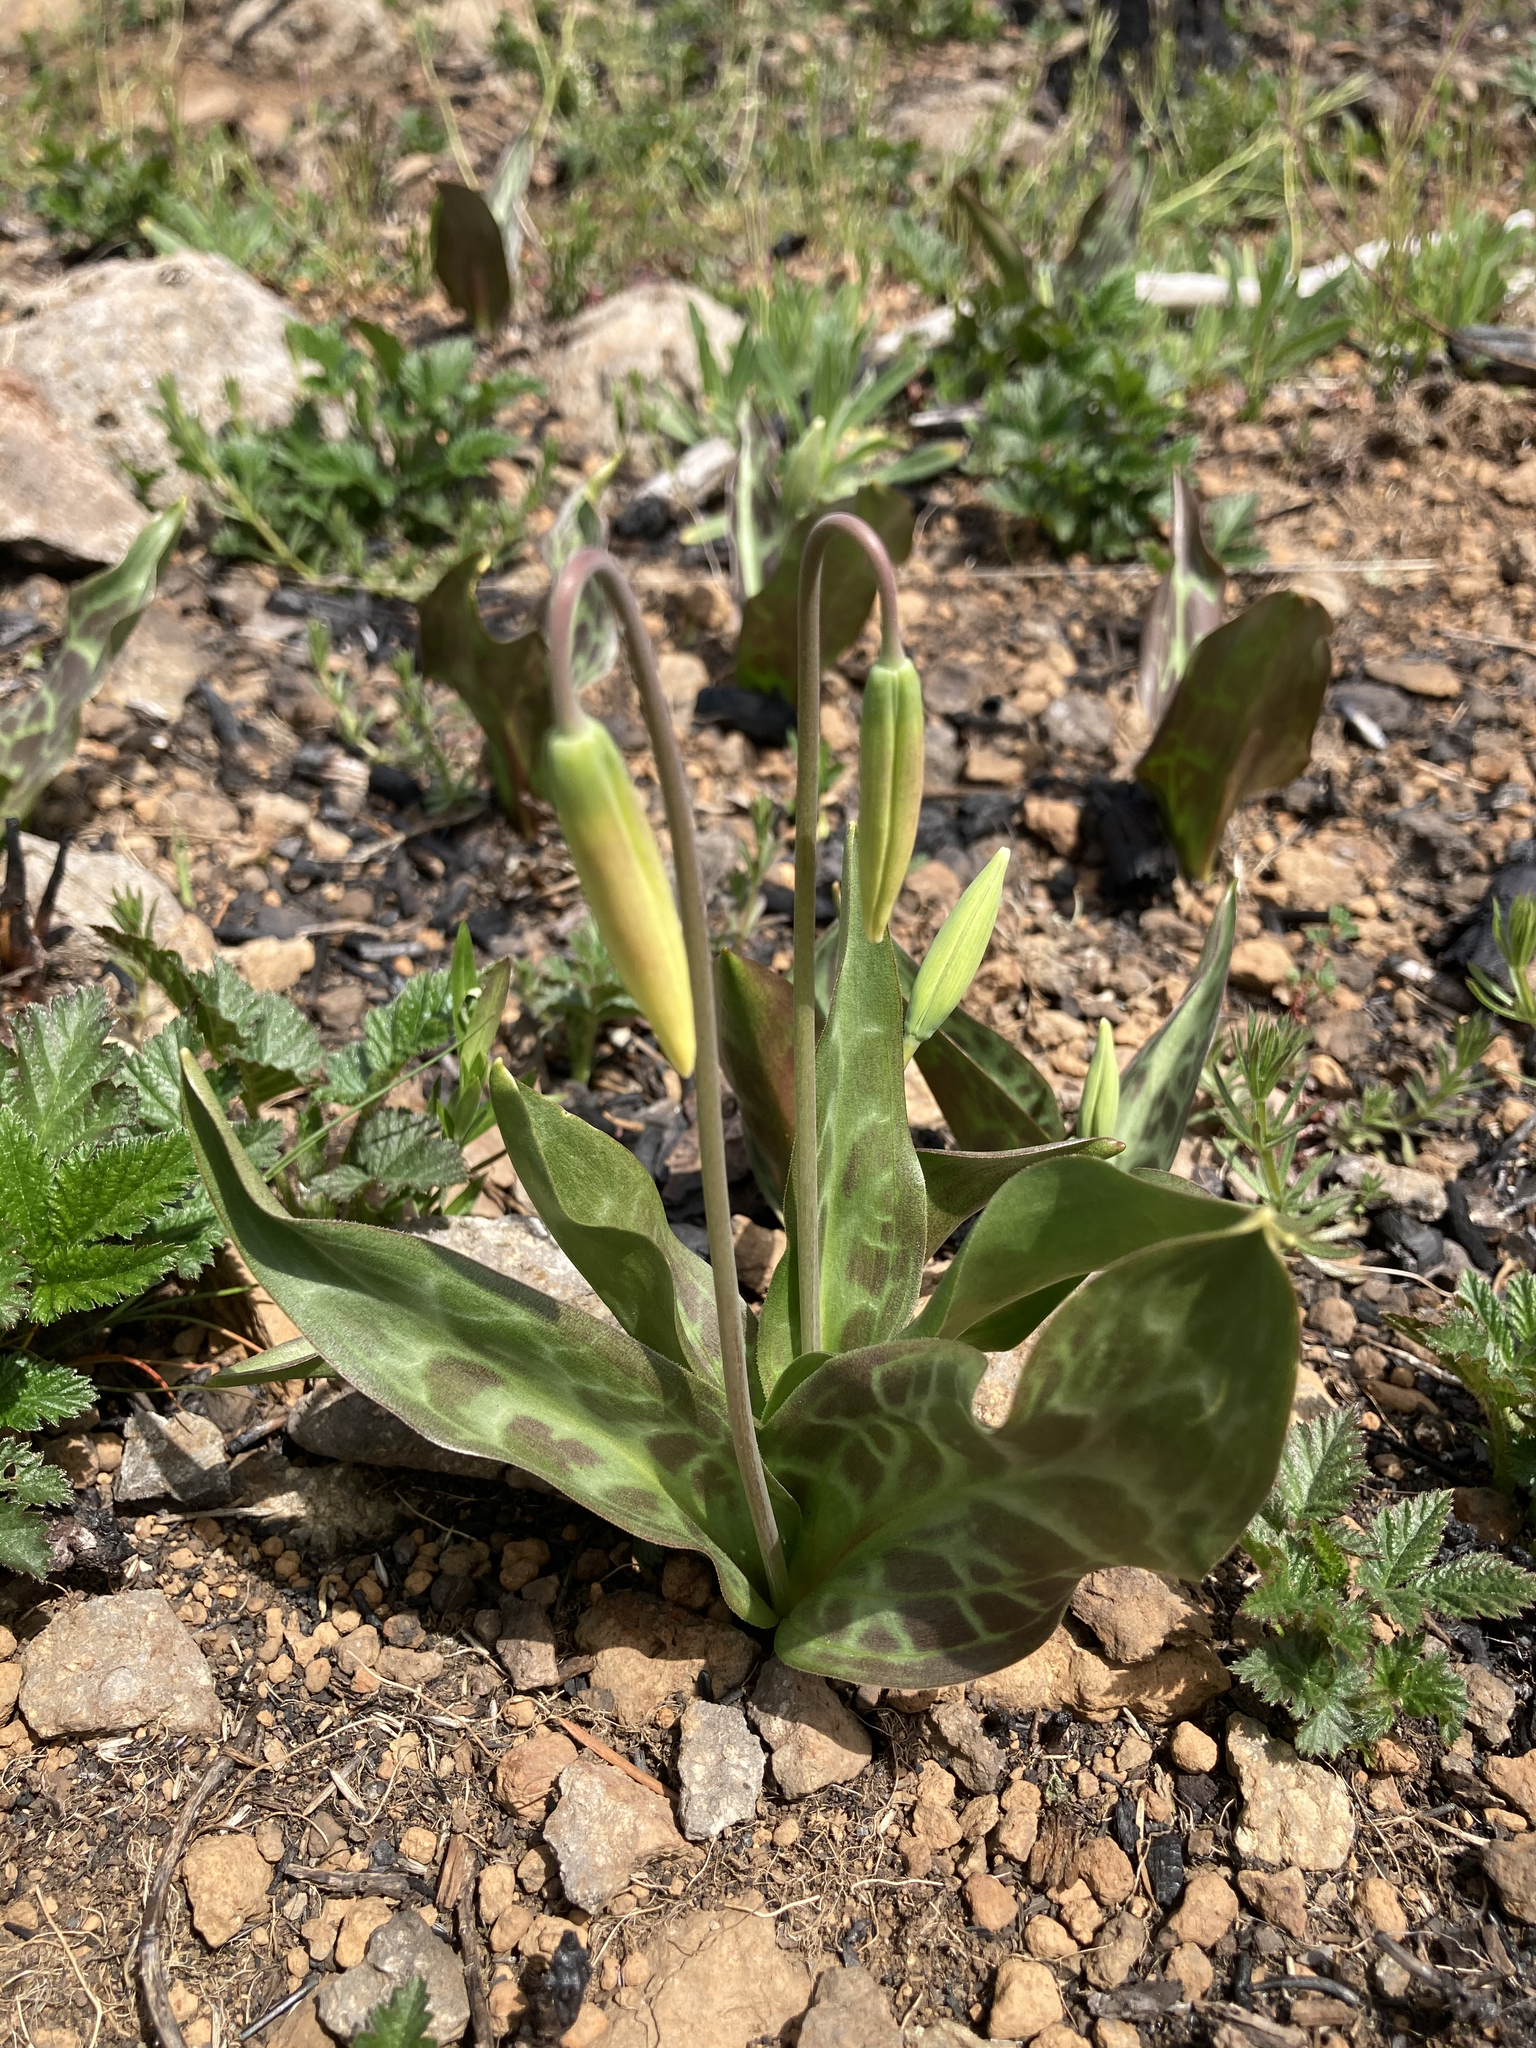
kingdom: Plantae
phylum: Tracheophyta
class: Liliopsida
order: Liliales
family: Liliaceae
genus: Erythronium
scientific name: Erythronium oregonum
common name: Giant adder's-tongue
